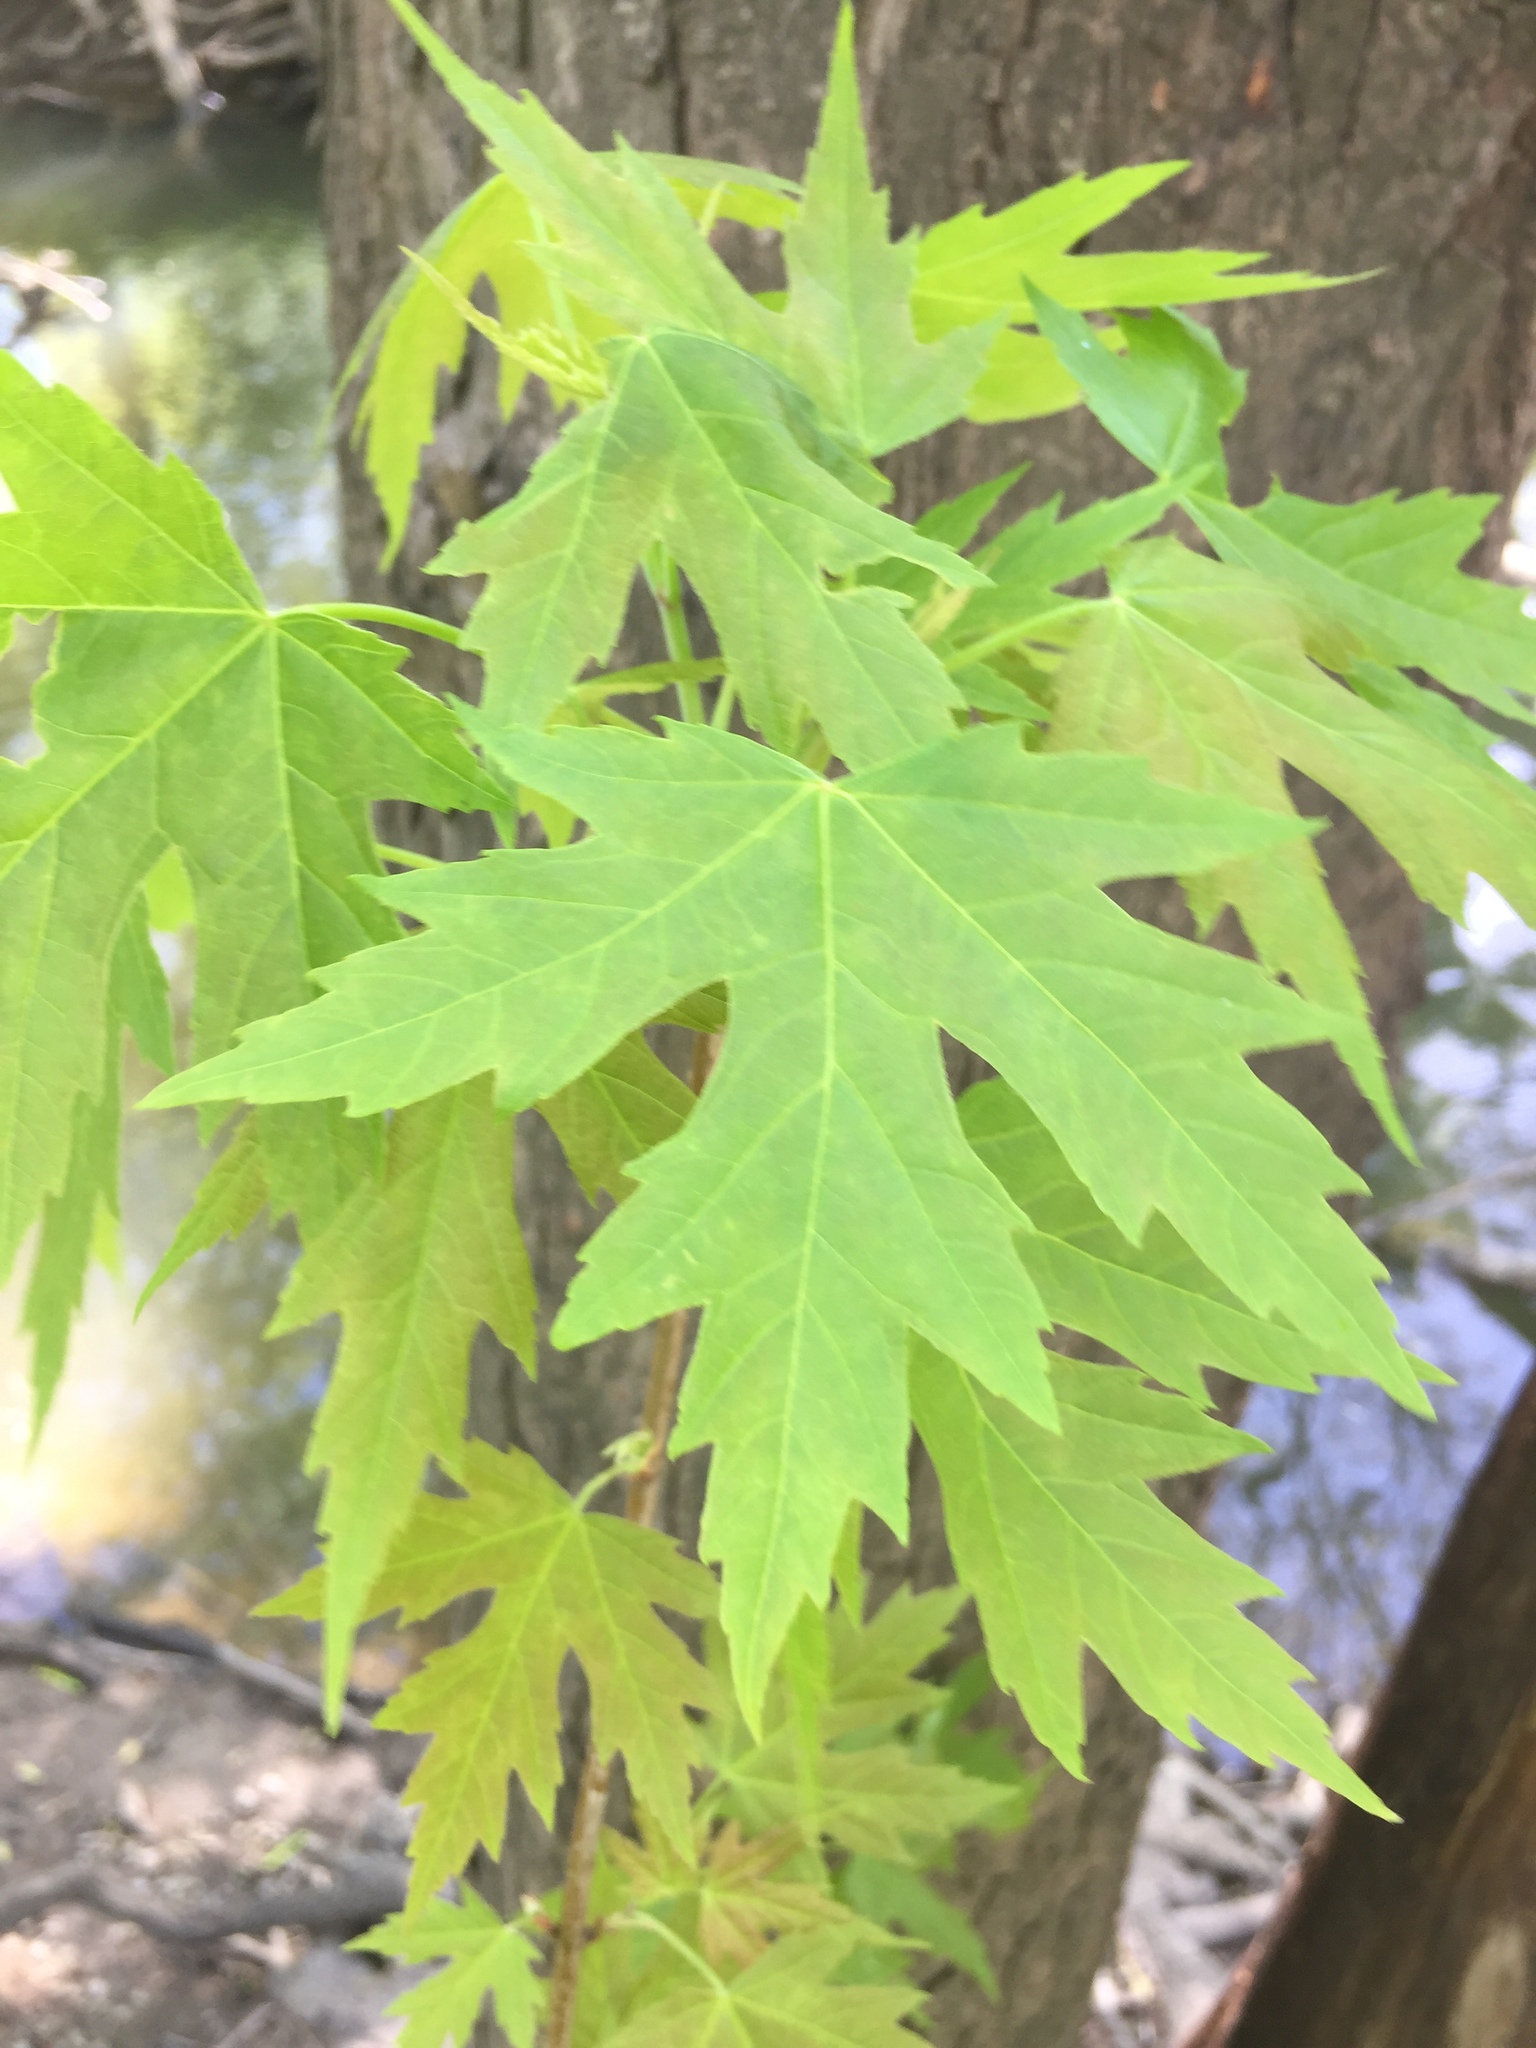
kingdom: Plantae
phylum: Tracheophyta
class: Magnoliopsida
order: Sapindales
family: Sapindaceae
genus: Acer
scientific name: Acer saccharinum
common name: Silver maple
